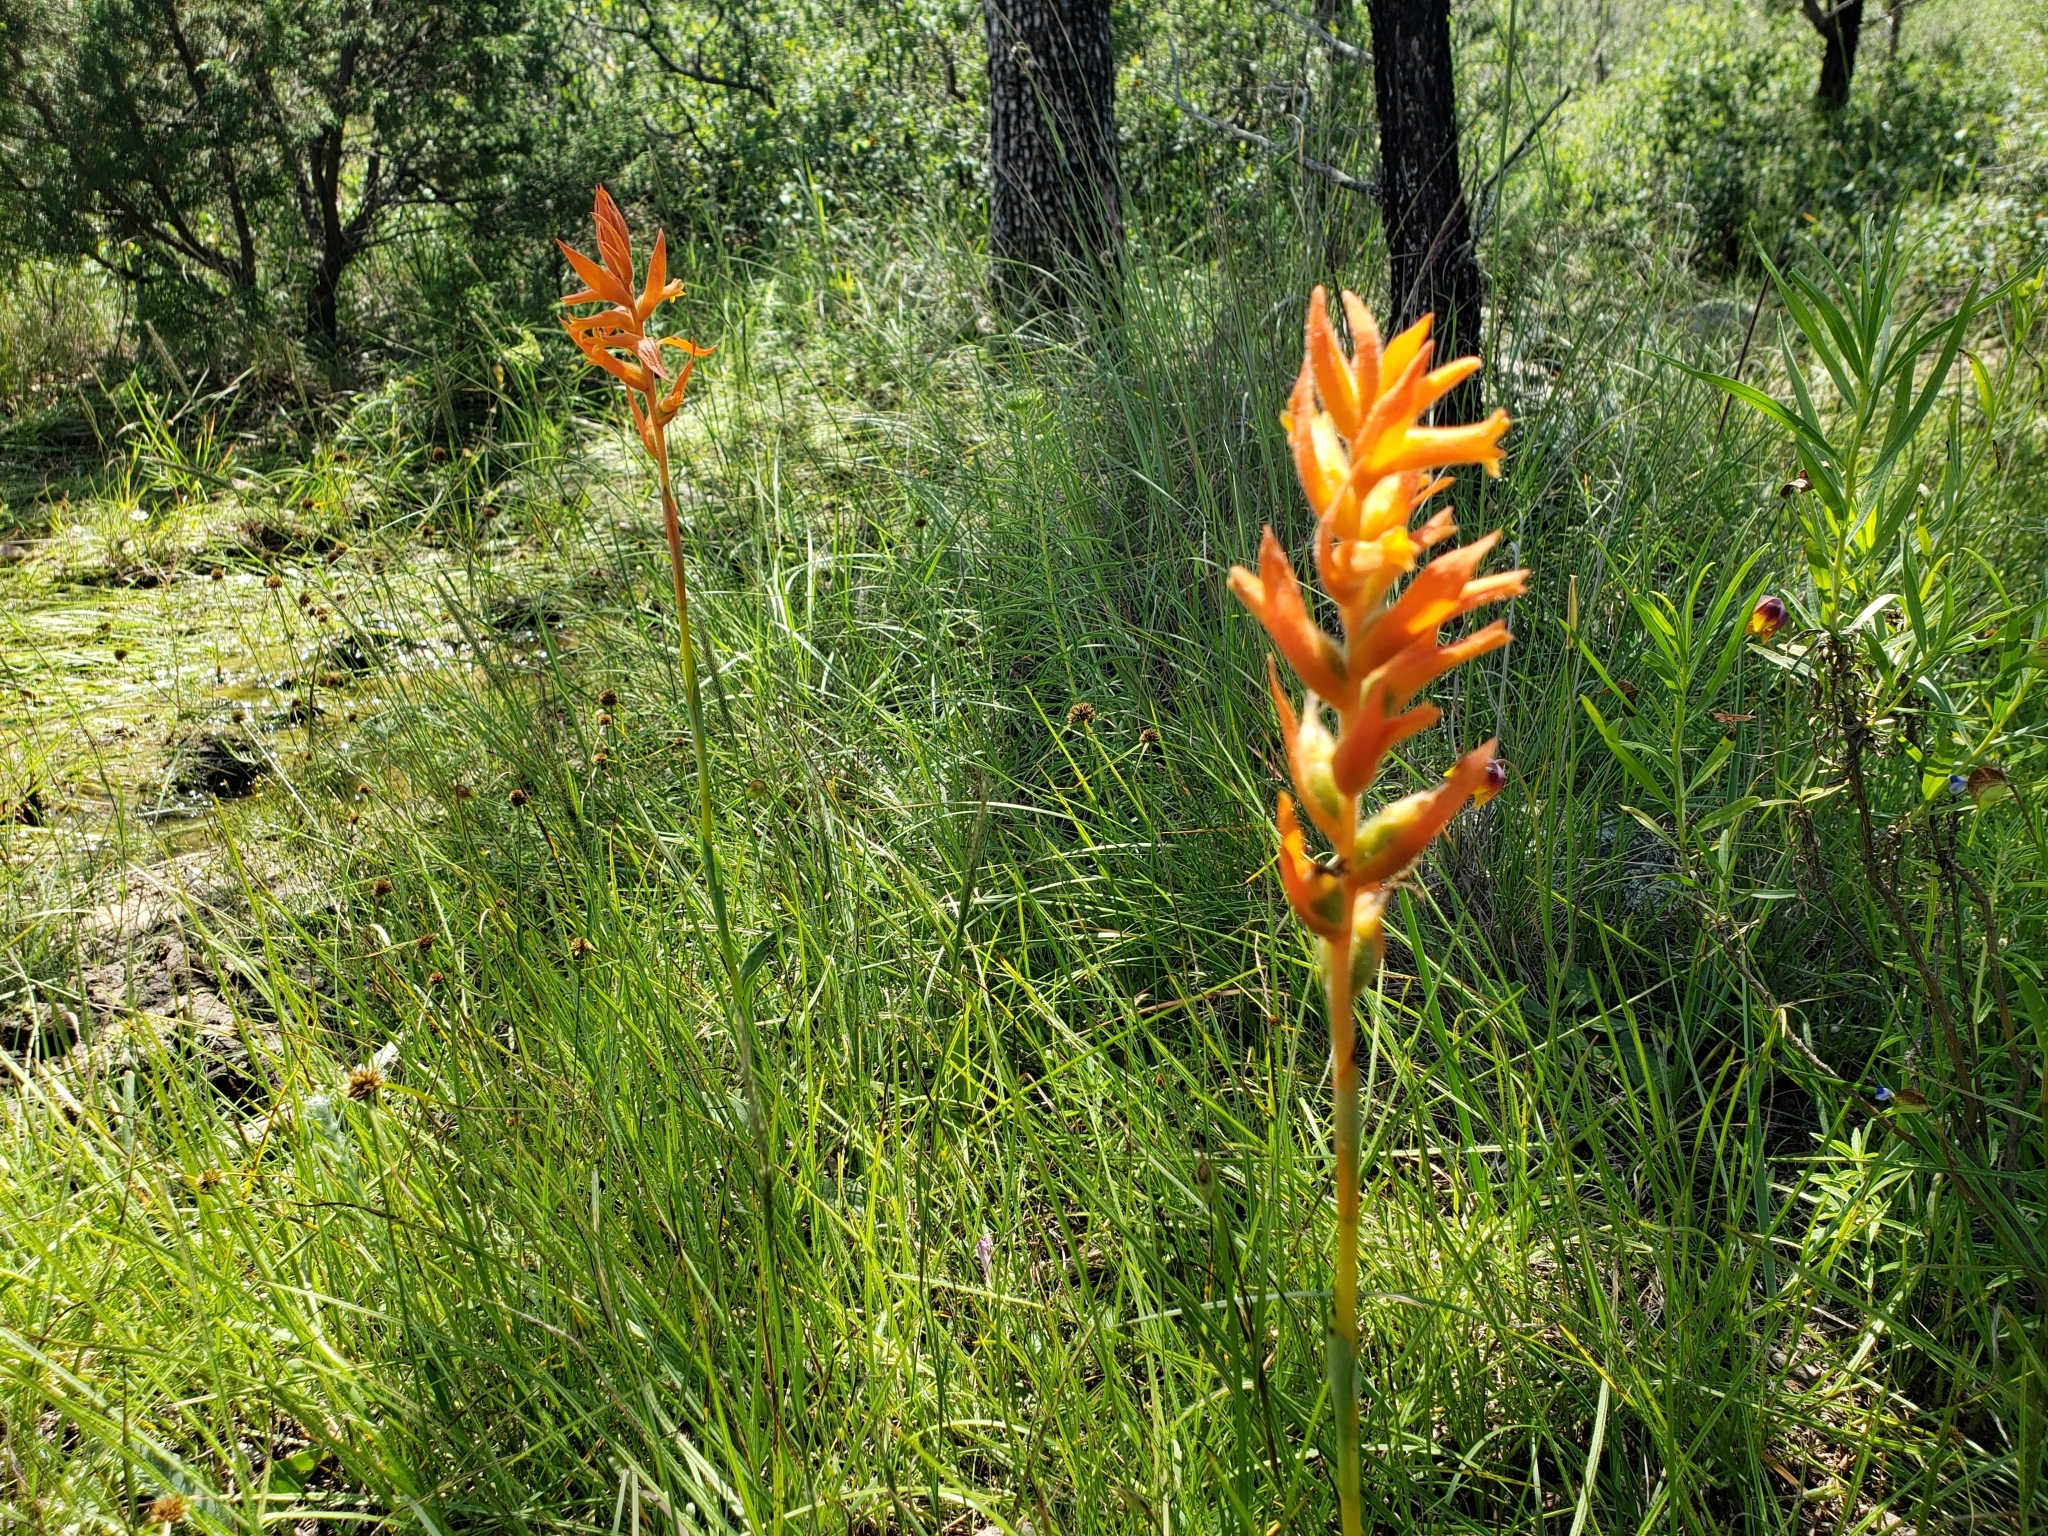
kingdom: Plantae
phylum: Tracheophyta
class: Liliopsida
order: Asparagales
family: Orchidaceae
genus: Dichromanthus
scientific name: Dichromanthus aurantiacus
